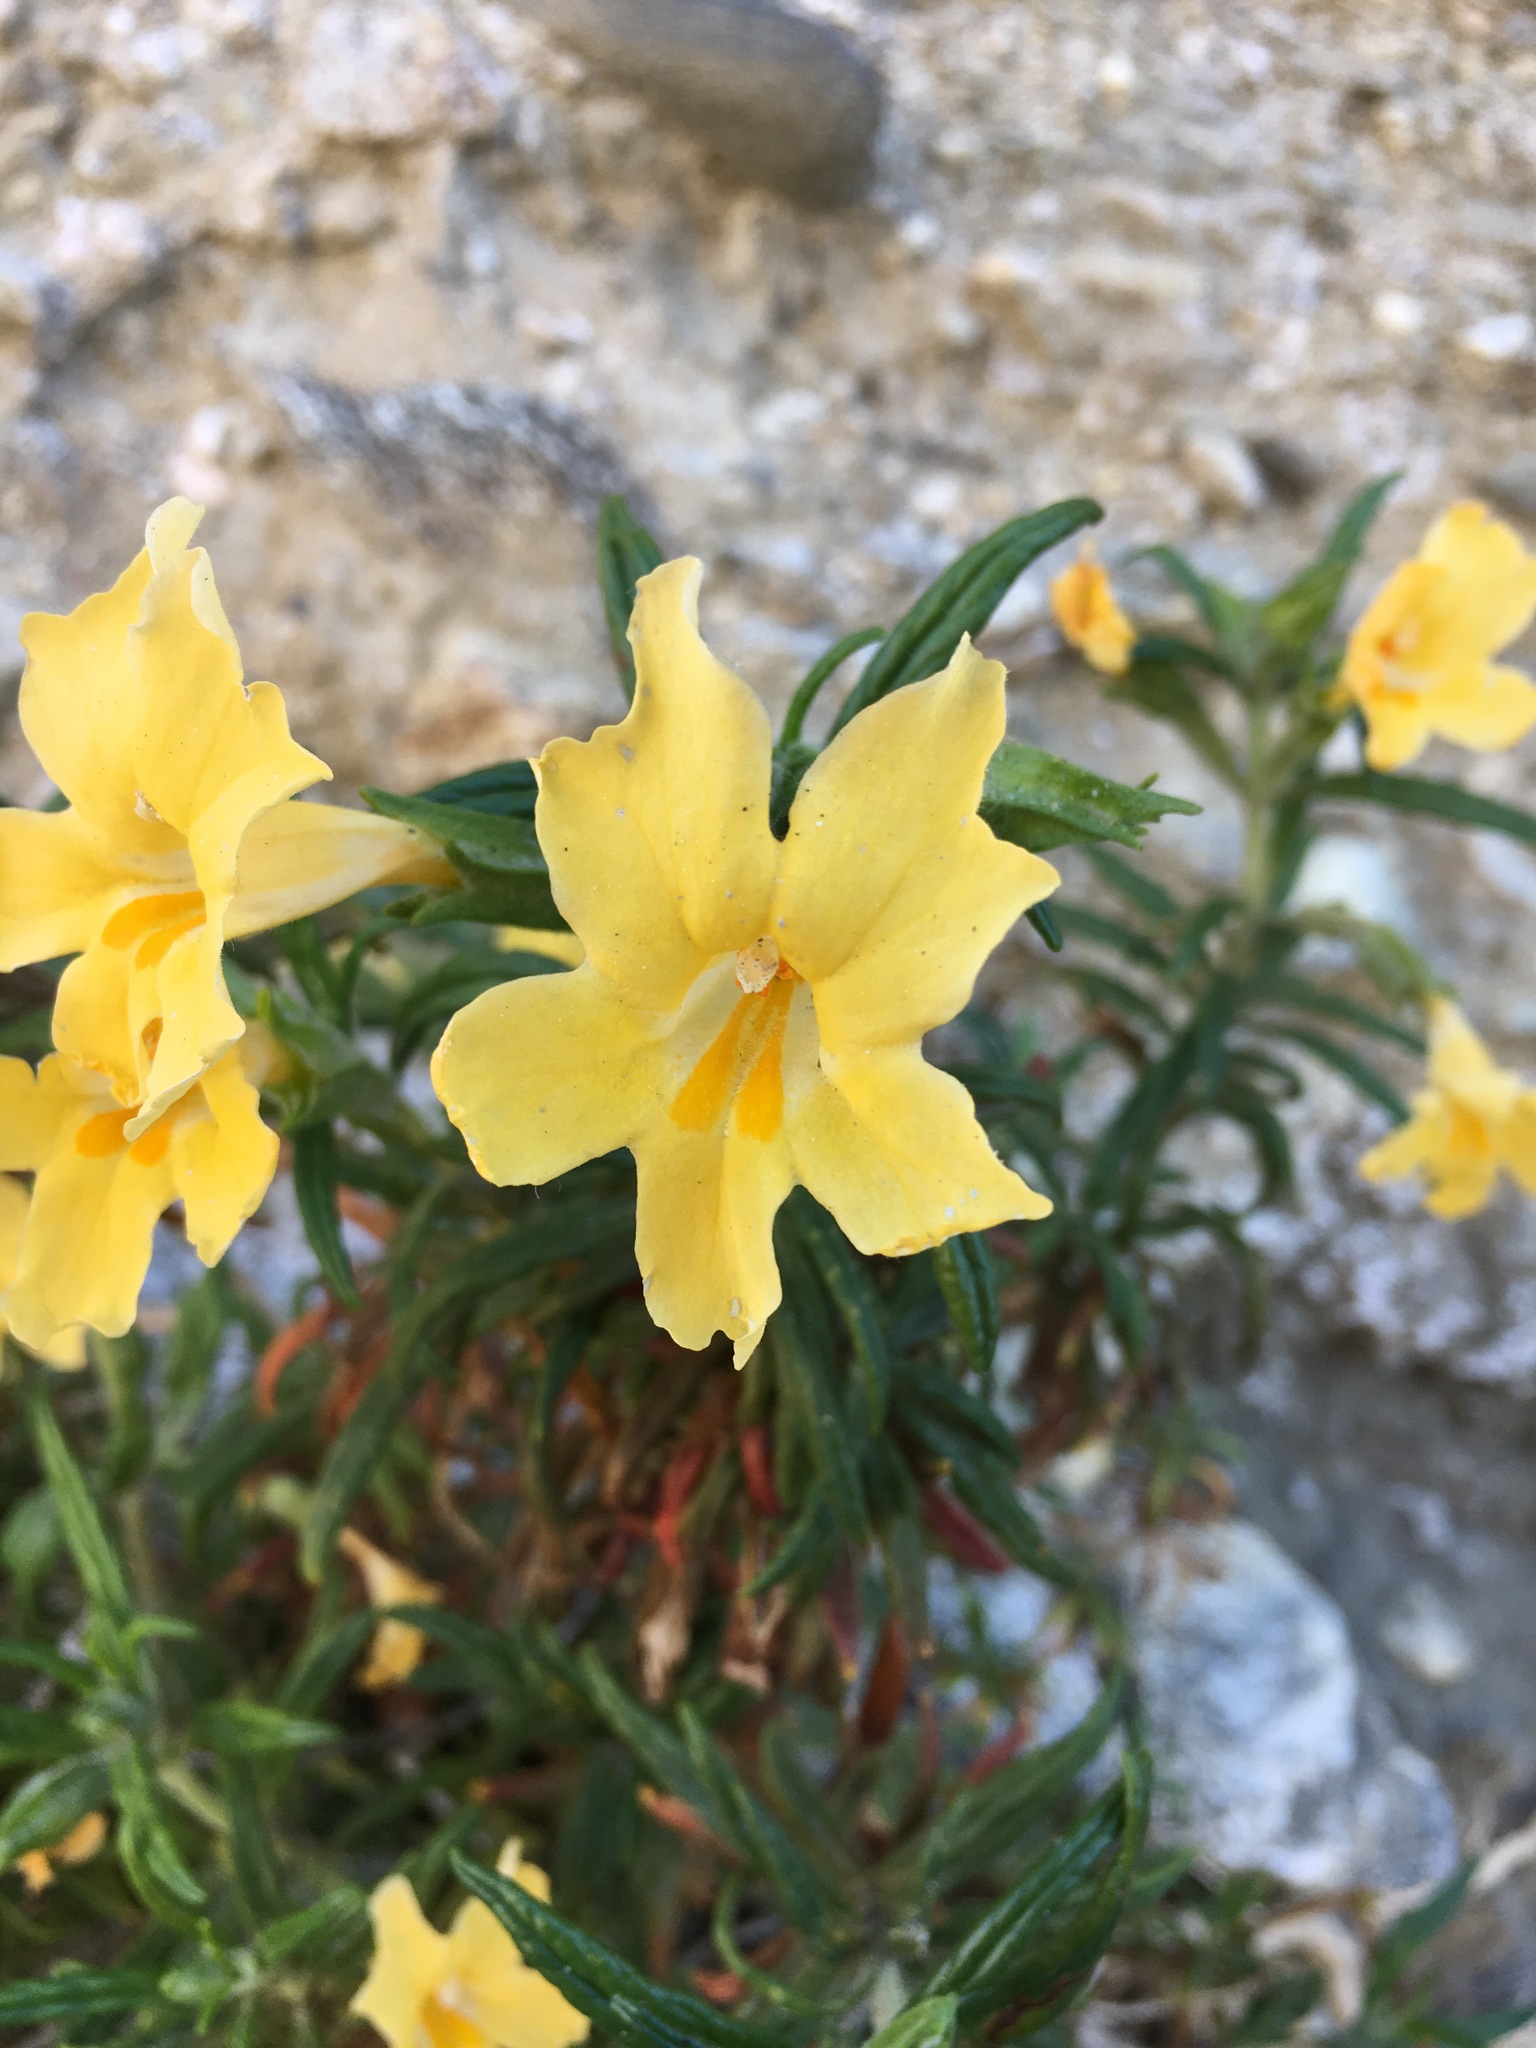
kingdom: Plantae
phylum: Tracheophyta
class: Magnoliopsida
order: Lamiales
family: Phrymaceae
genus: Diplacus
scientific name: Diplacus calycinus
